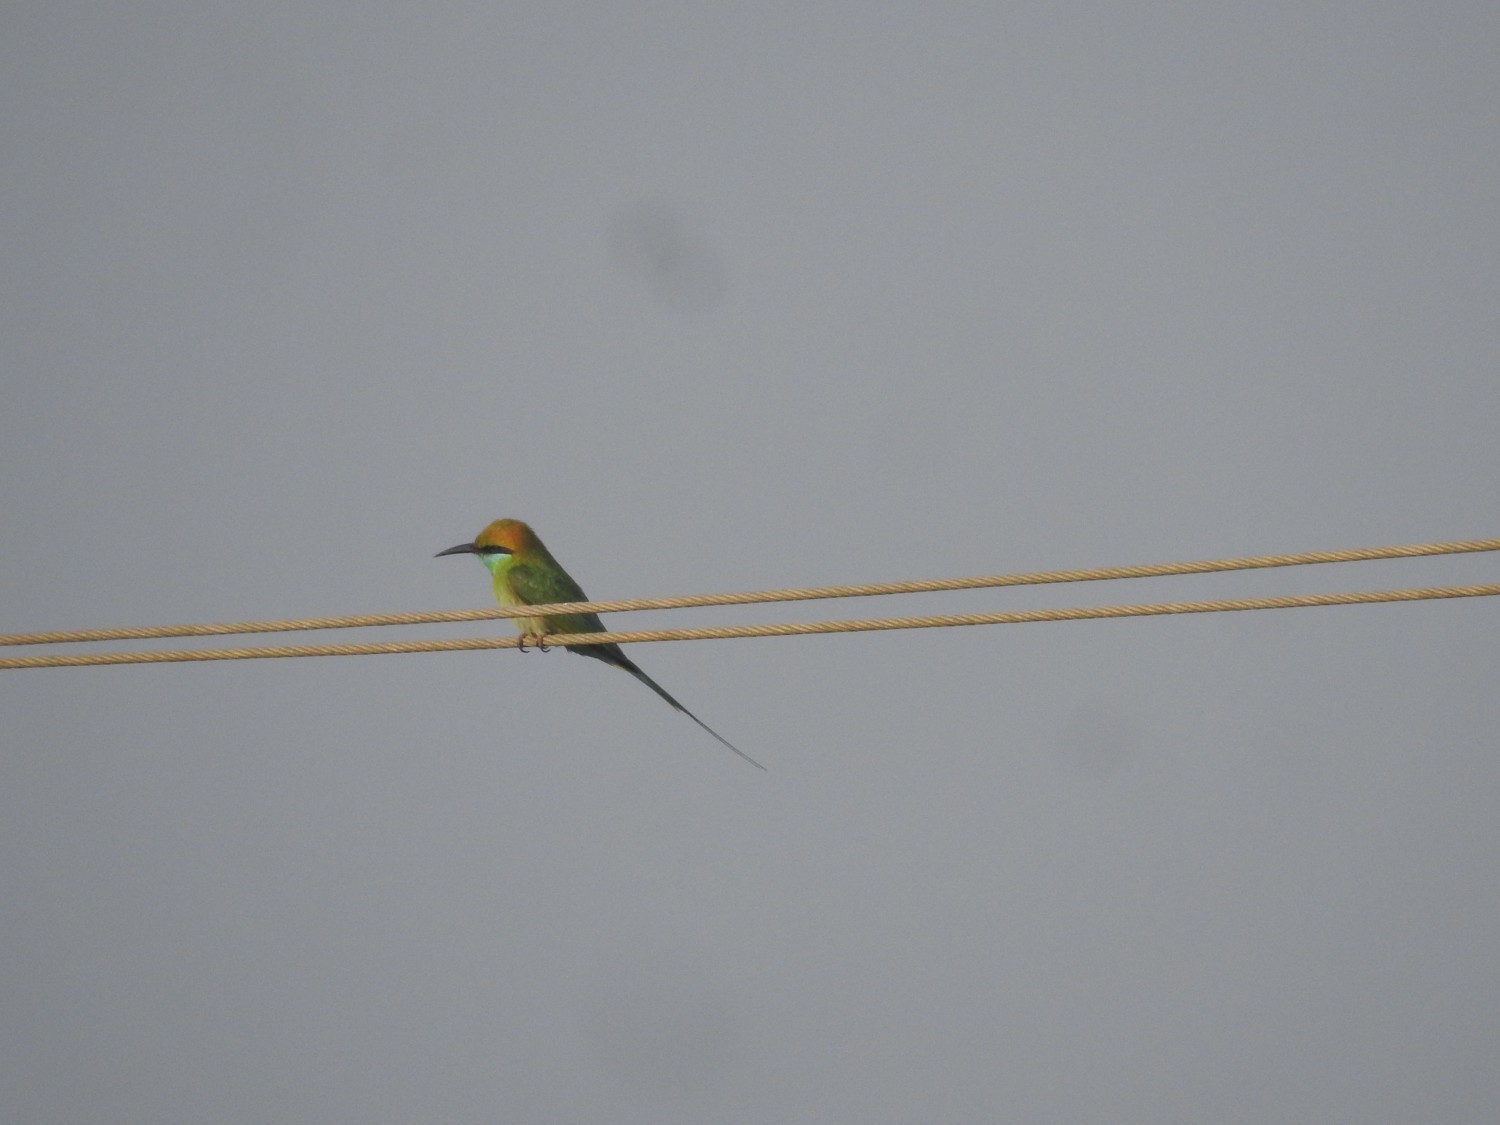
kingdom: Animalia
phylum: Chordata
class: Aves
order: Coraciiformes
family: Meropidae
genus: Merops
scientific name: Merops orientalis
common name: Green bee-eater
